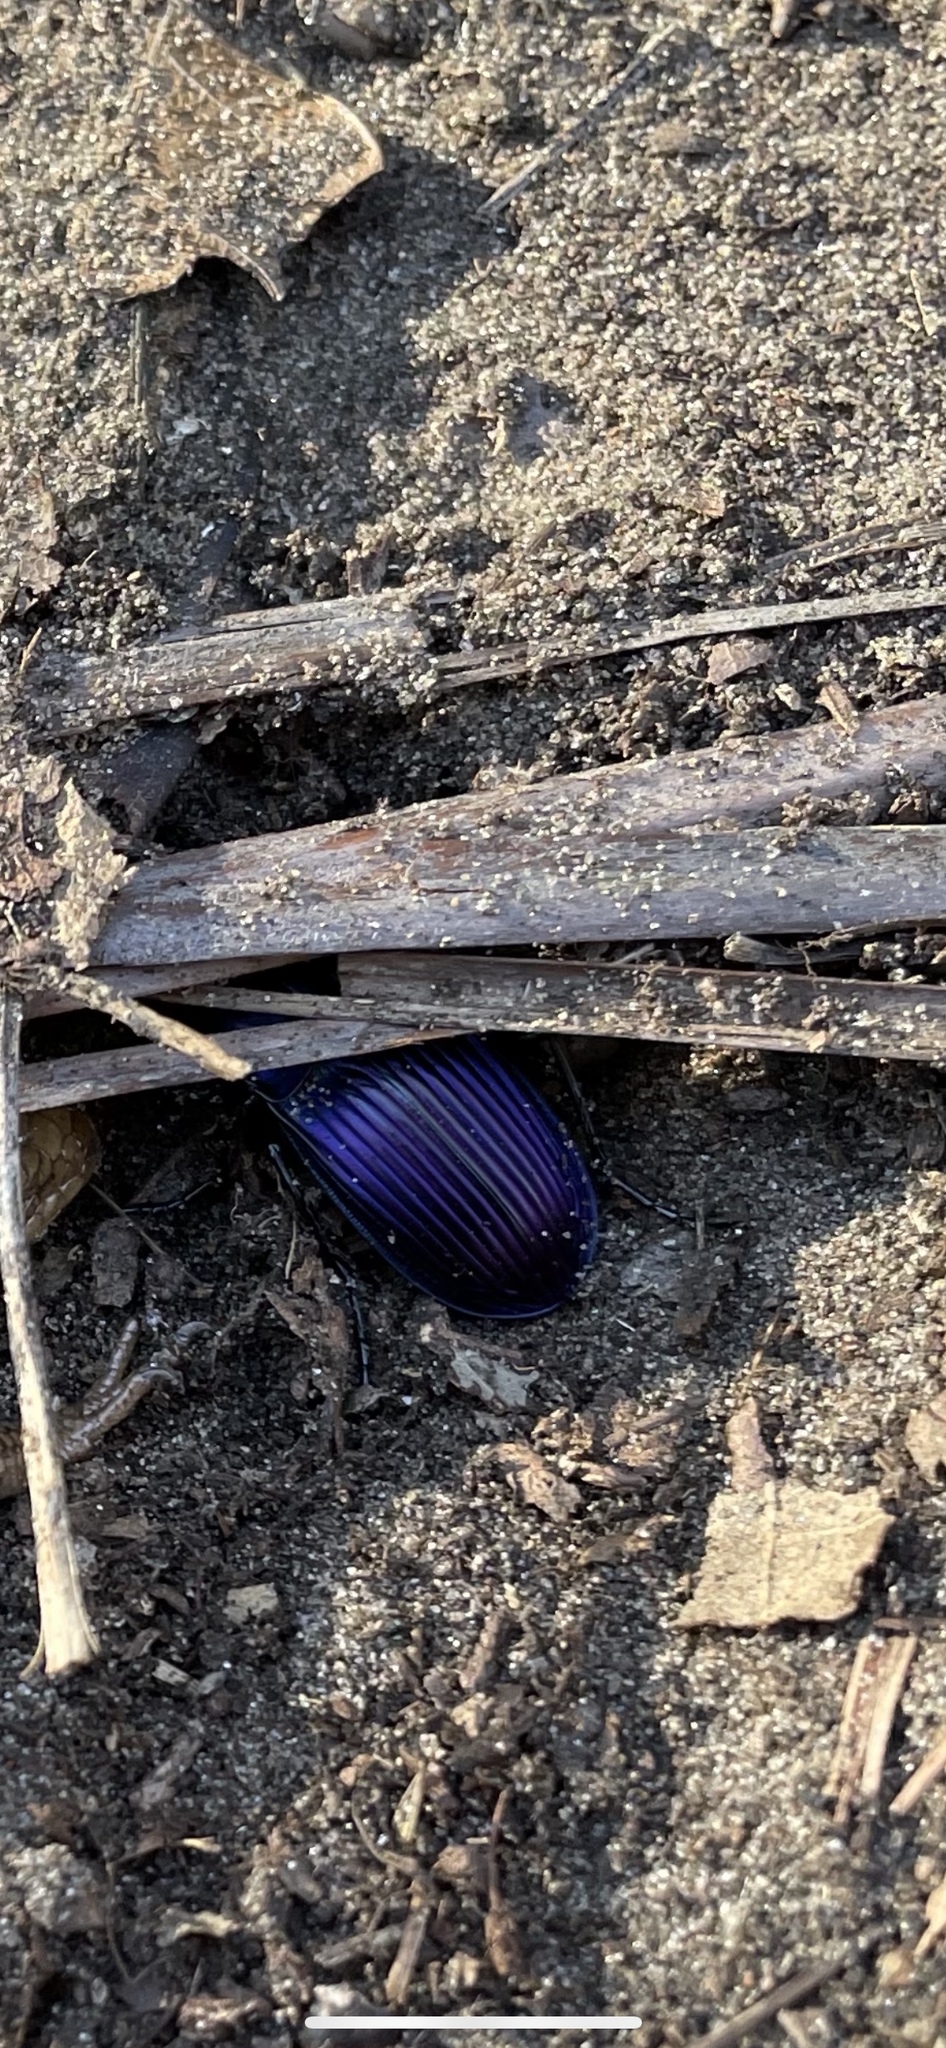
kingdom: Animalia
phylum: Arthropoda
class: Insecta
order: Coleoptera
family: Carabidae
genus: Dicaelus
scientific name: Dicaelus purpuratus
